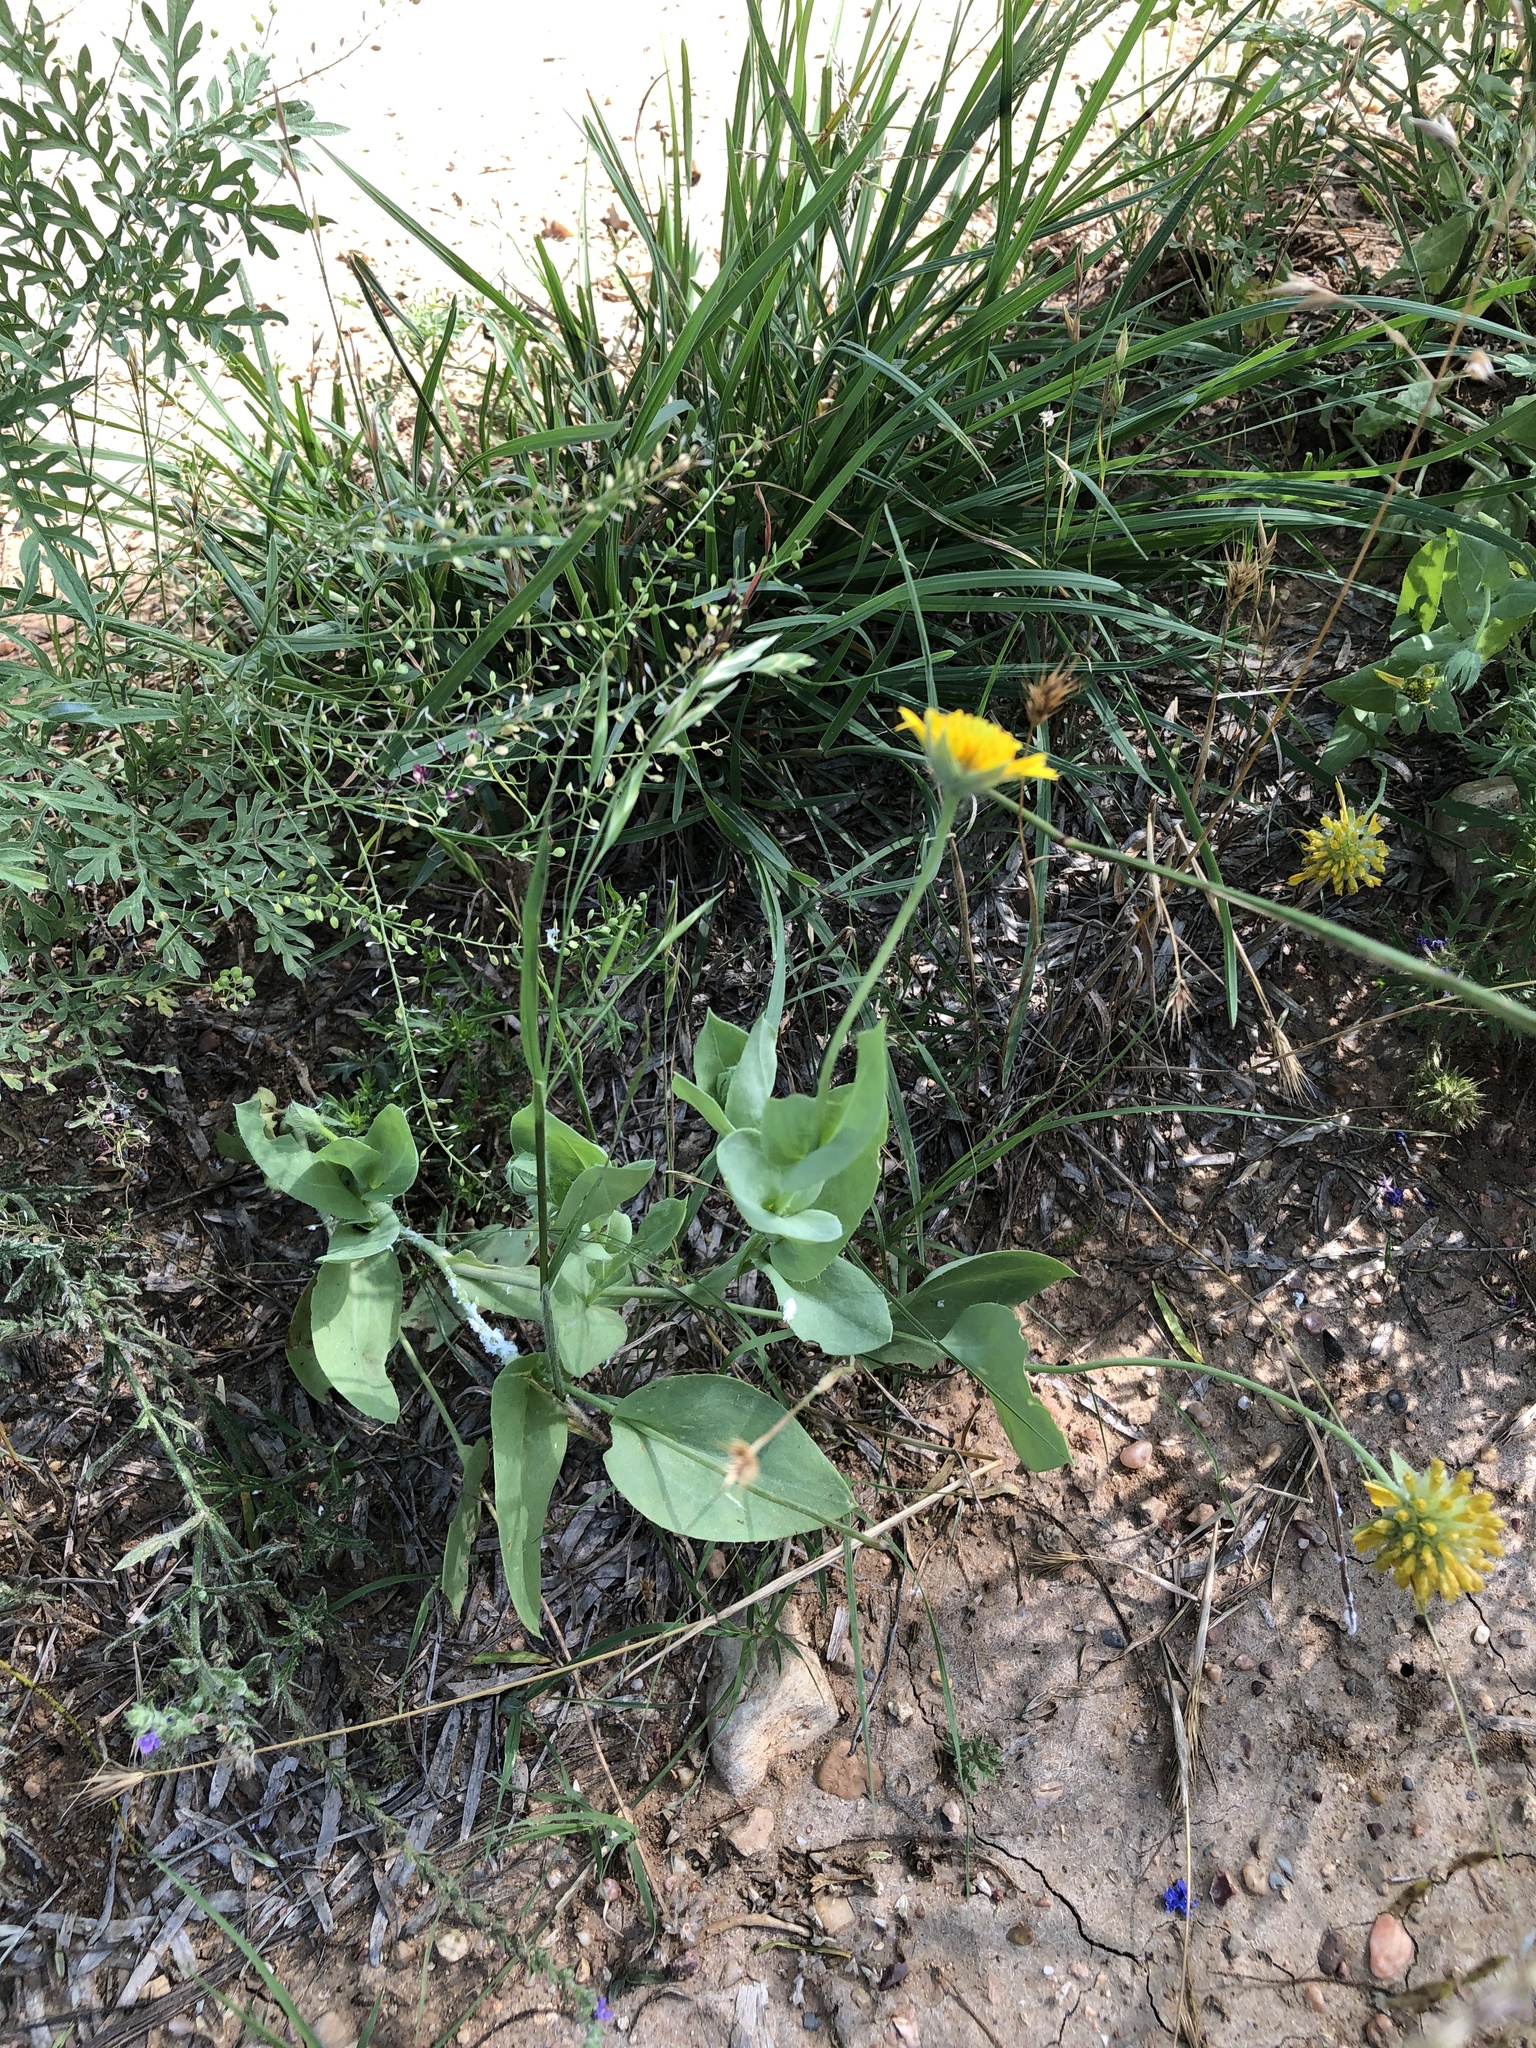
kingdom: Plantae
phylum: Tracheophyta
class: Magnoliopsida
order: Asterales
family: Asteraceae
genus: Amblyolepis
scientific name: Amblyolepis setigera
